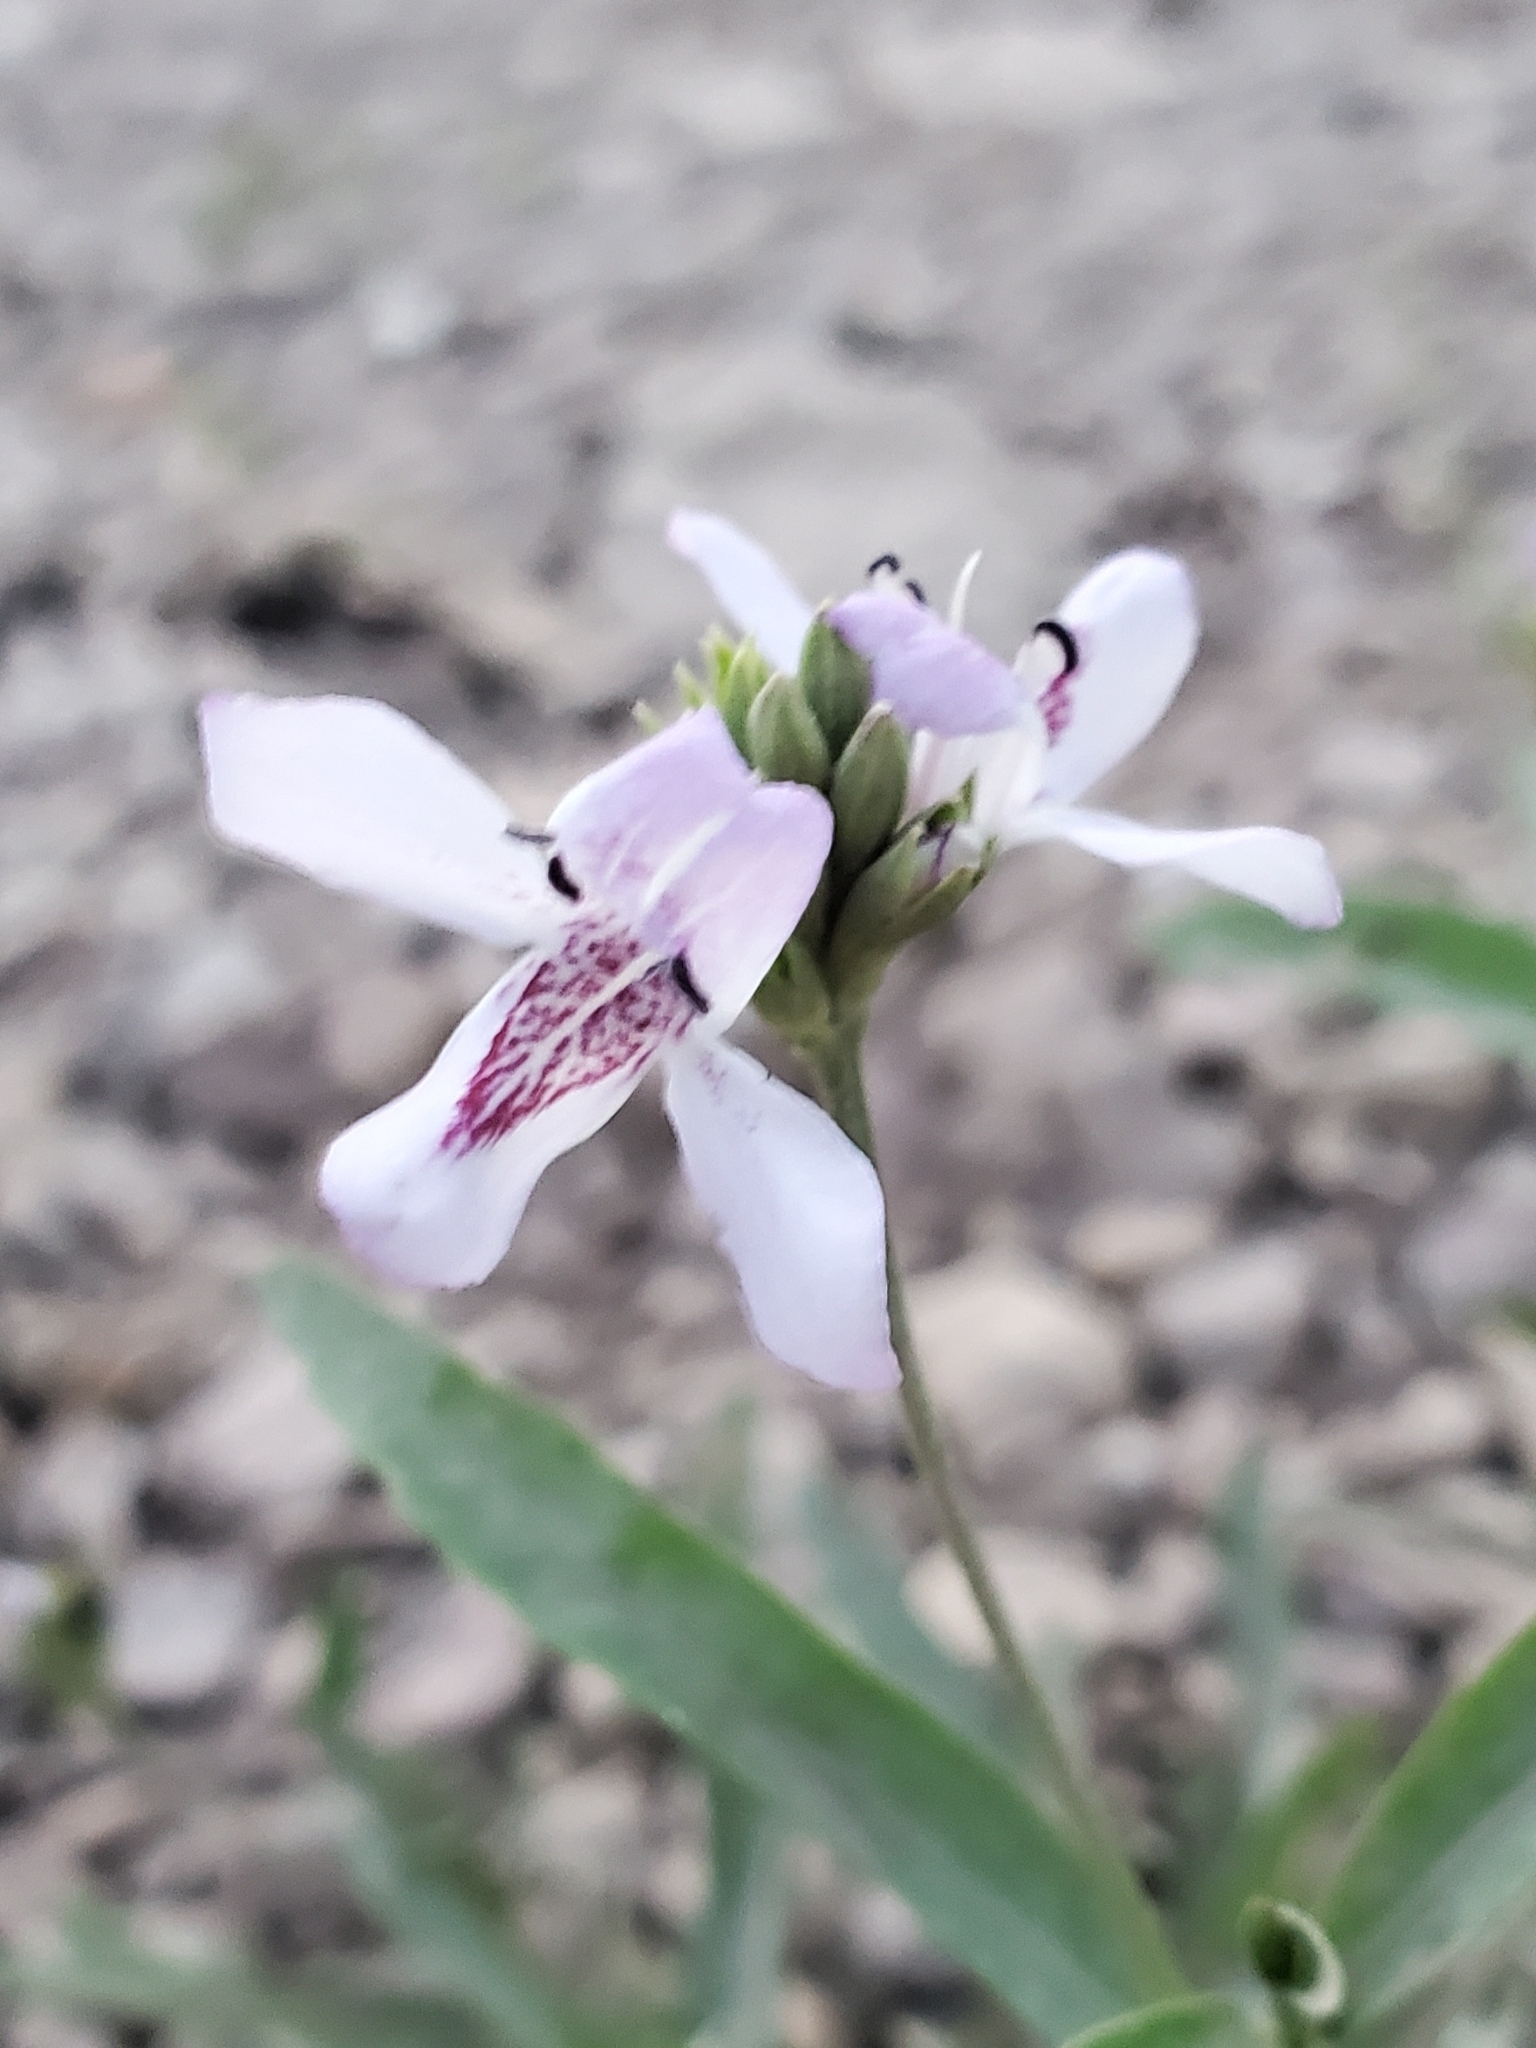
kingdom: Plantae
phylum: Tracheophyta
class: Magnoliopsida
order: Lamiales
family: Acanthaceae
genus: Dianthera
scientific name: Dianthera americana
